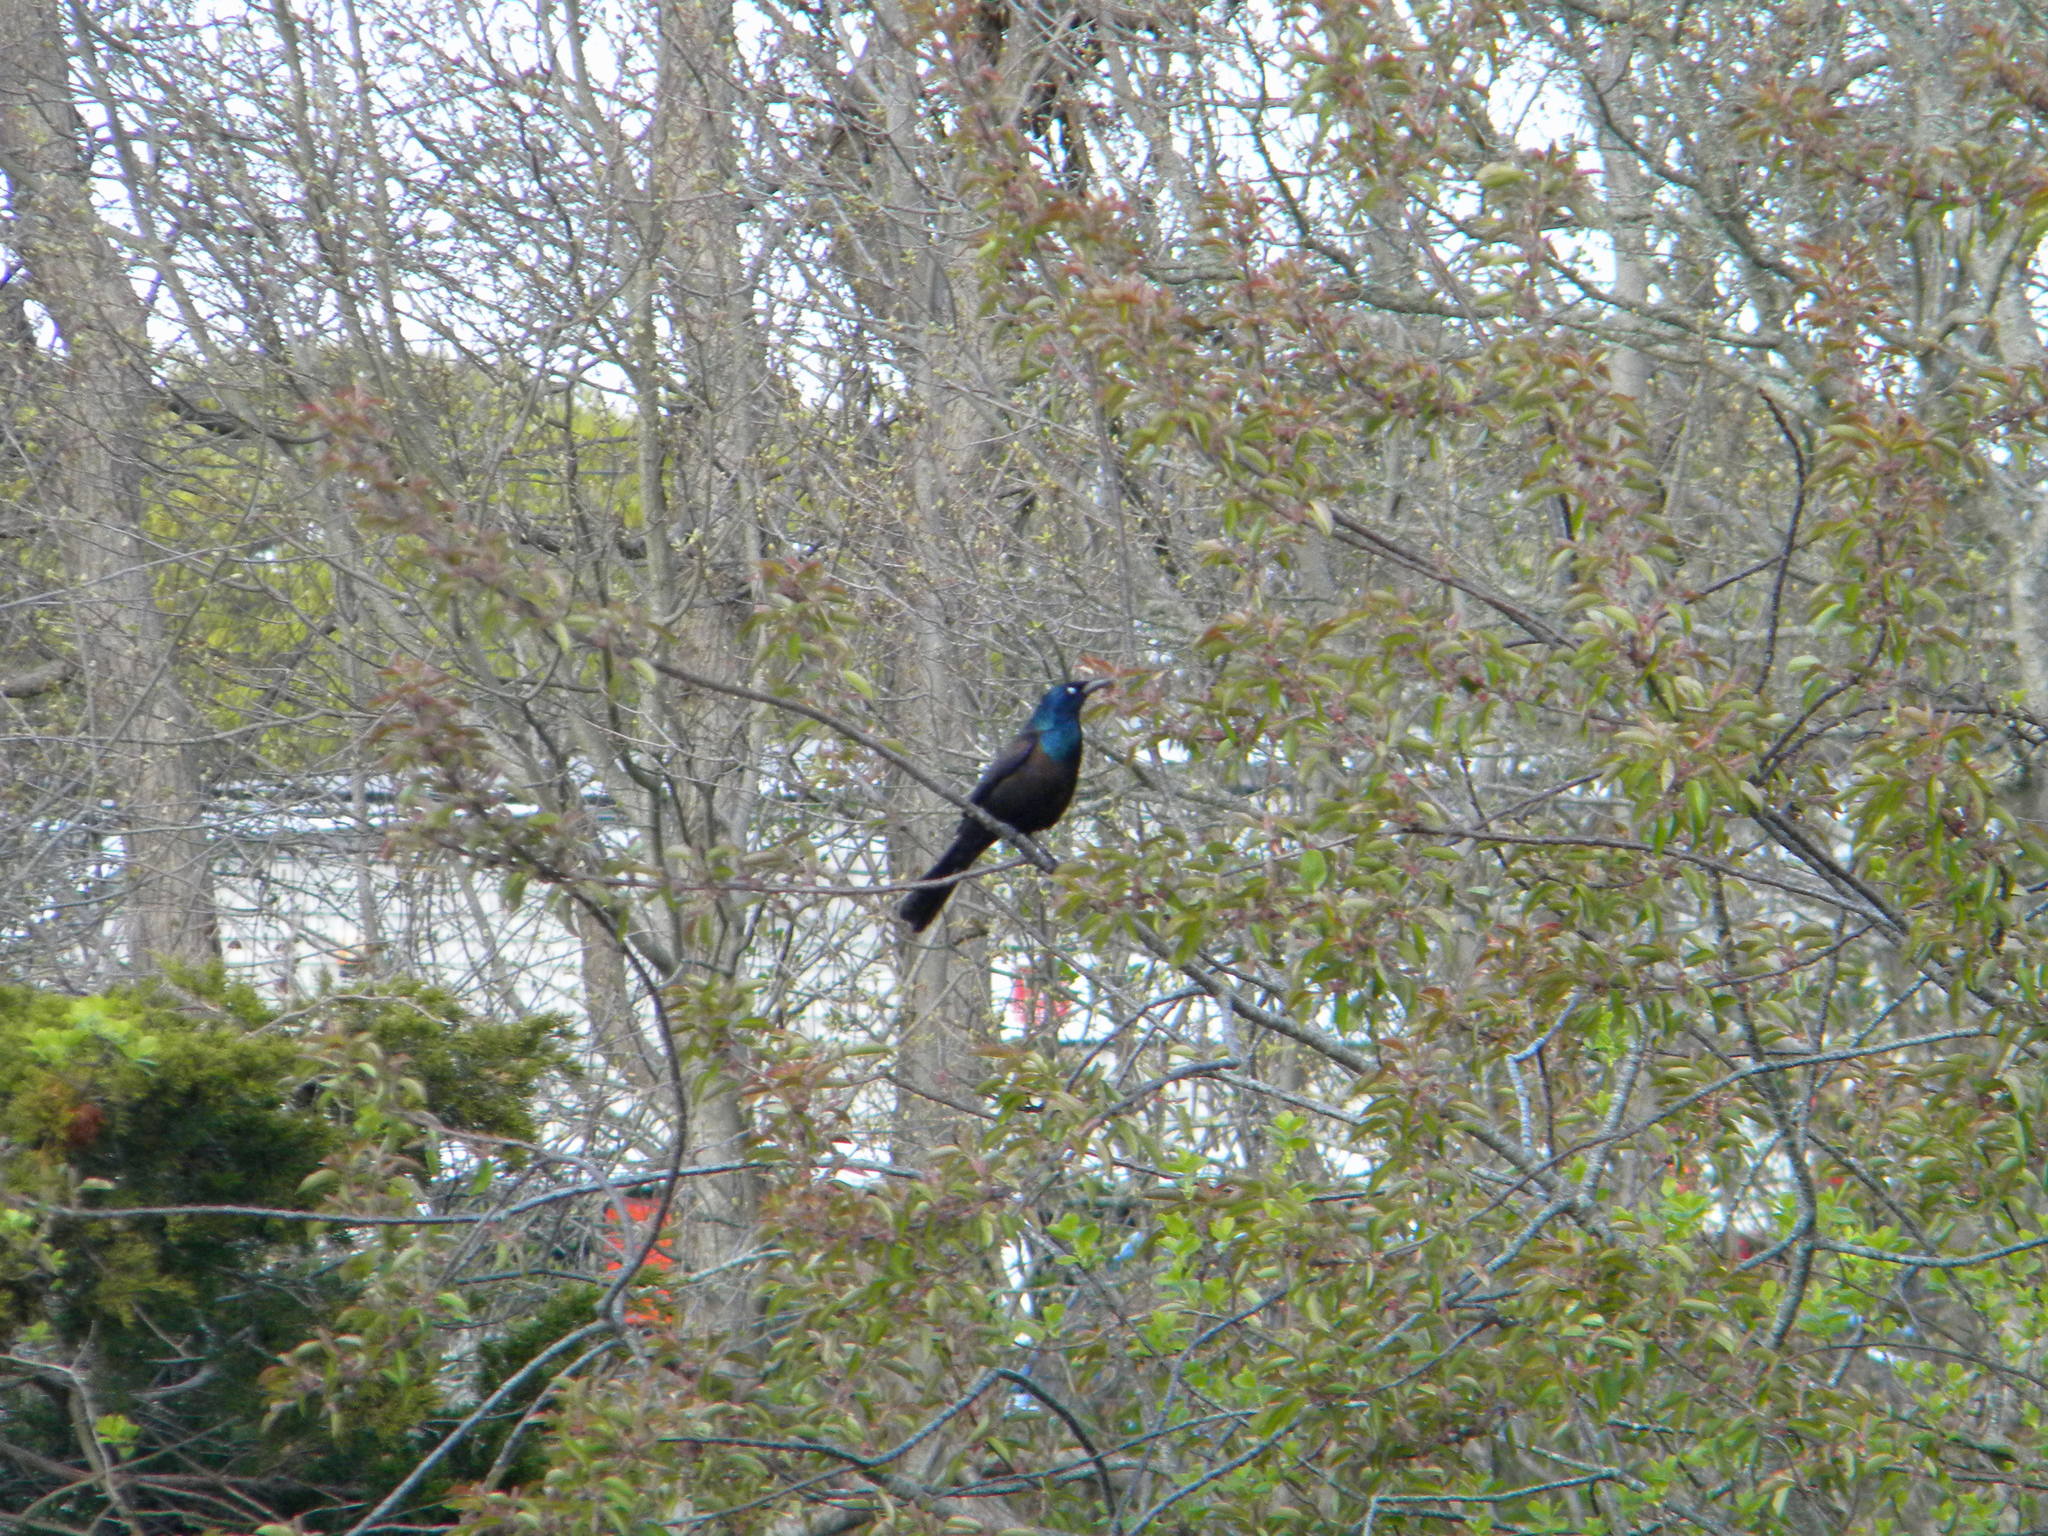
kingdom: Animalia
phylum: Chordata
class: Aves
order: Passeriformes
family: Icteridae
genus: Quiscalus
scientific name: Quiscalus quiscula
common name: Common grackle
